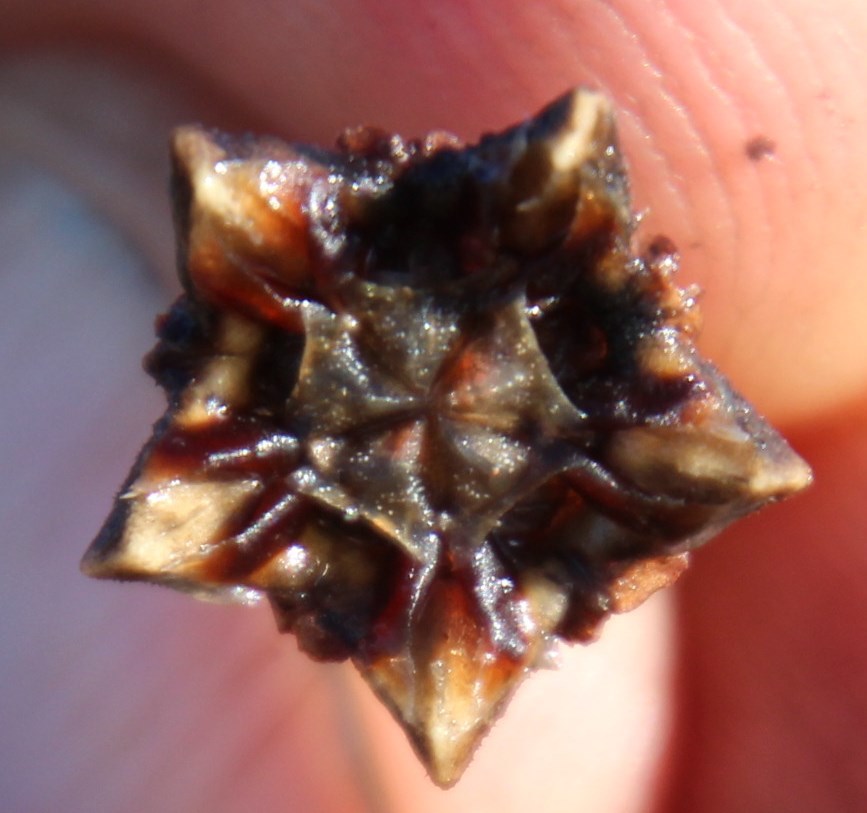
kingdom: Plantae
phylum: Tracheophyta
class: Magnoliopsida
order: Caryophyllales
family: Aizoaceae
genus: Lampranthus
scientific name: Lampranthus spiniformis
